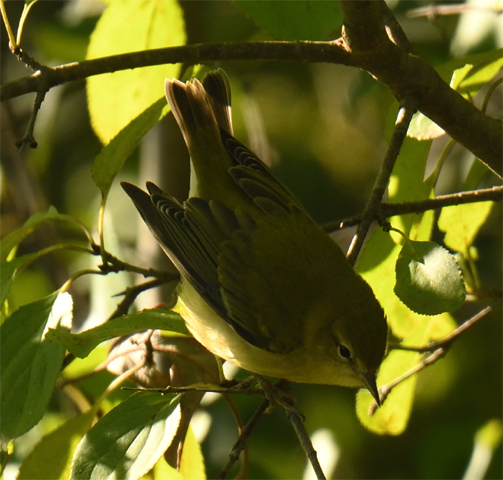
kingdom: Animalia
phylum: Chordata
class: Aves
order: Passeriformes
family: Parulidae
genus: Leiothlypis
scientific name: Leiothlypis peregrina
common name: Tennessee warbler
